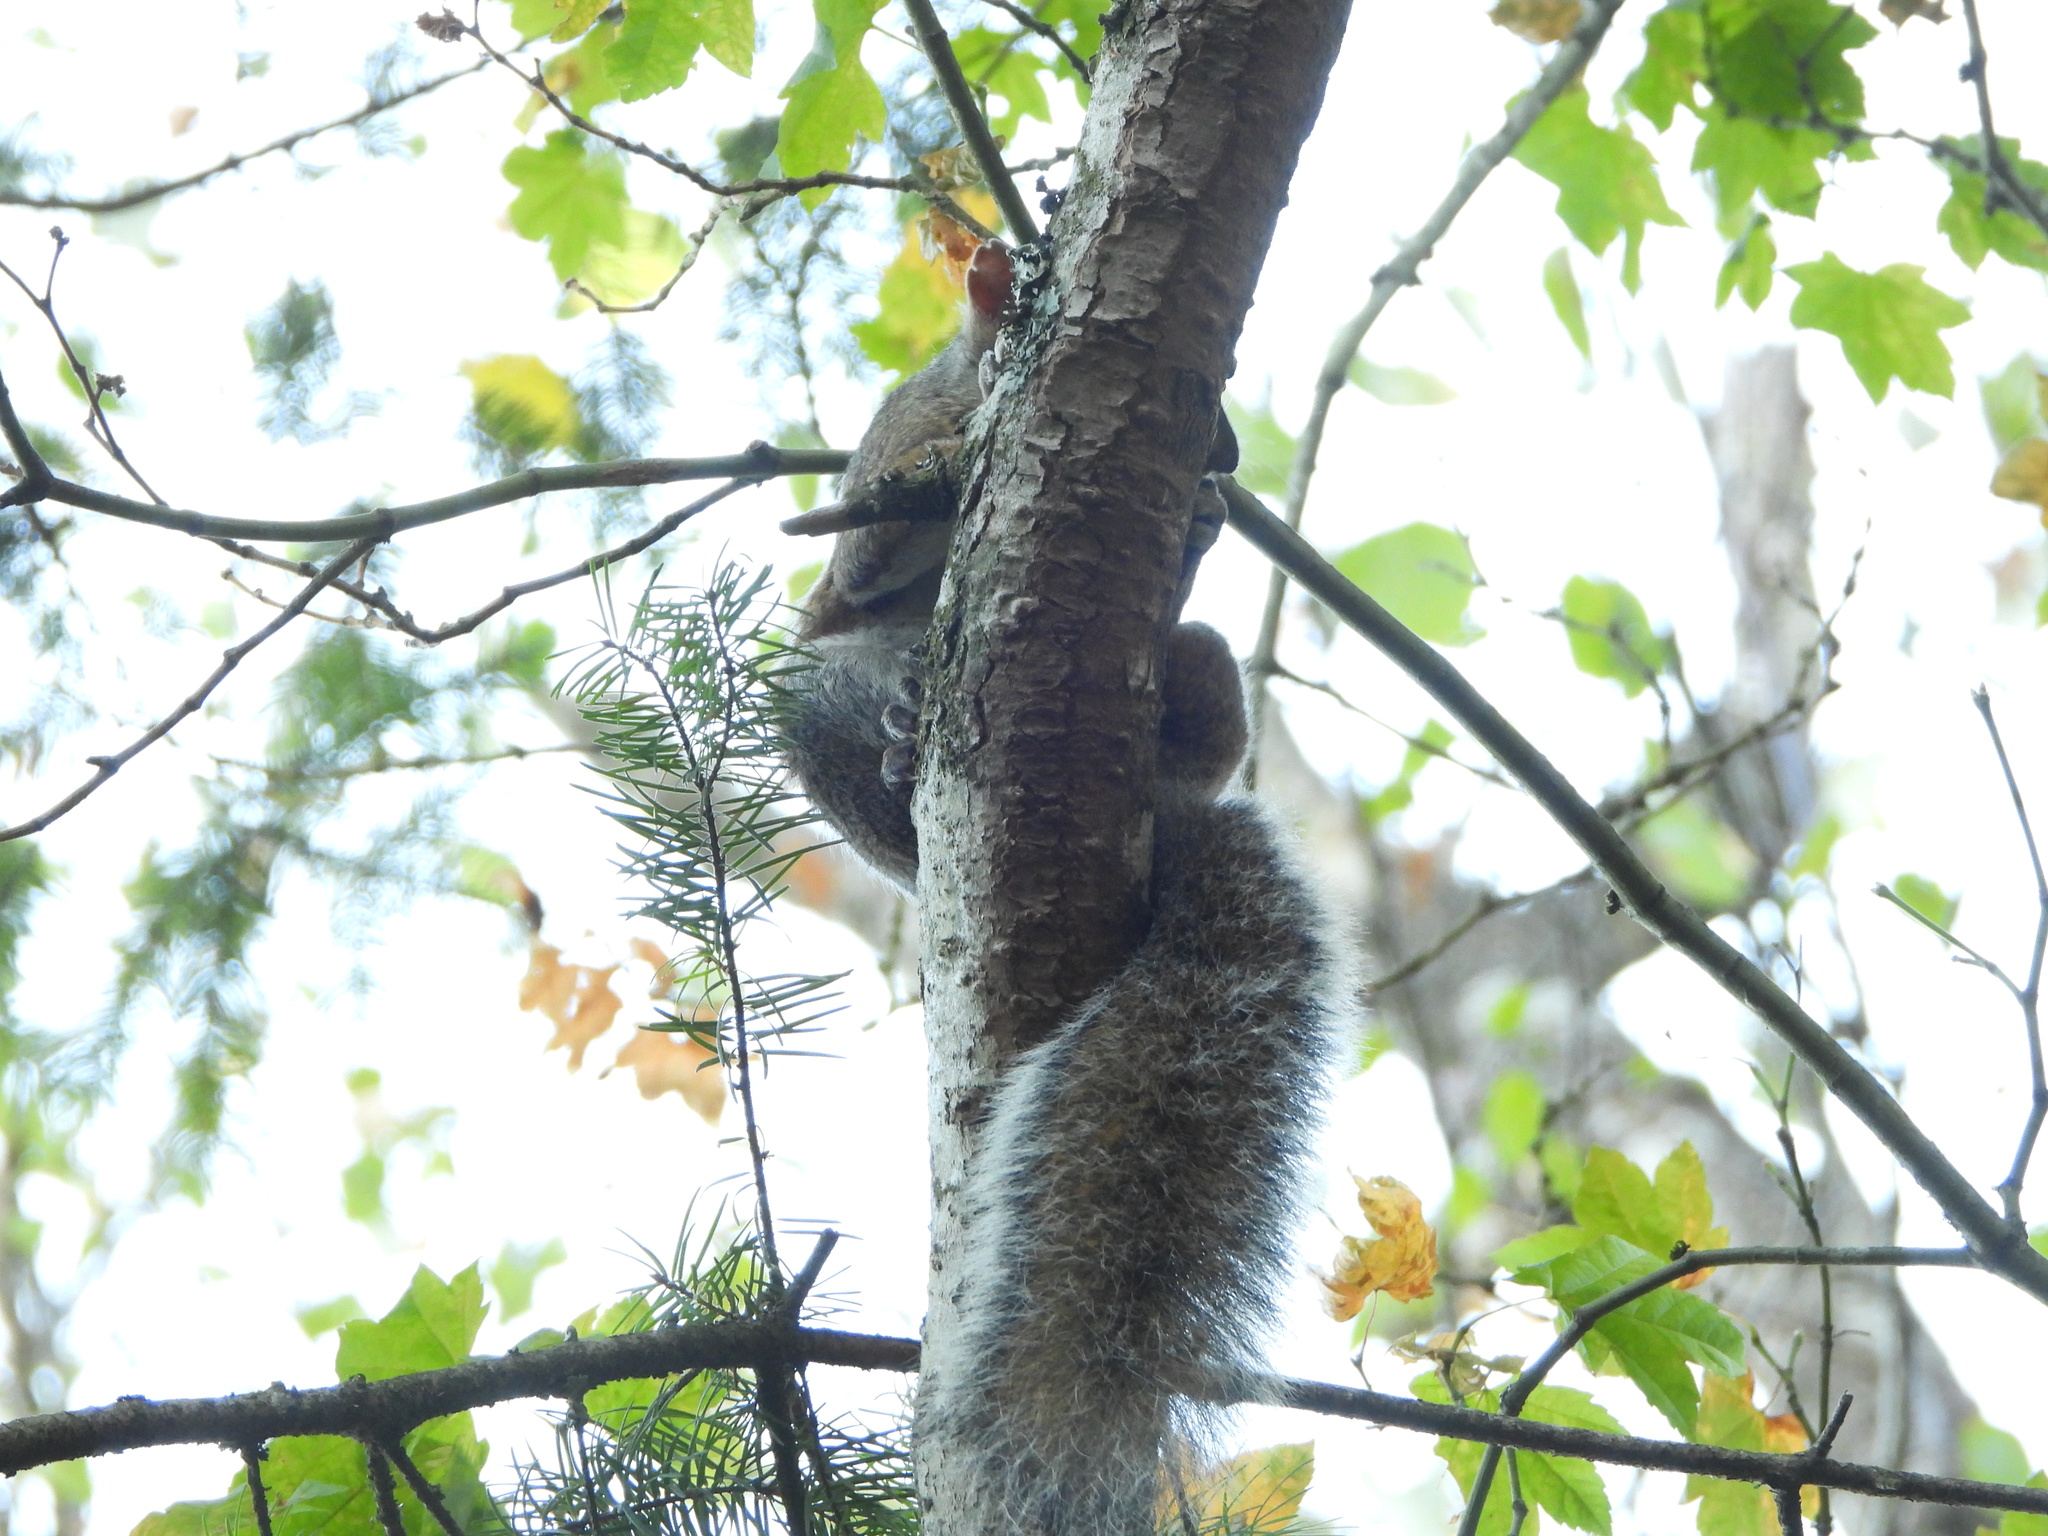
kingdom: Animalia
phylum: Chordata
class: Mammalia
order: Rodentia
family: Sciuridae
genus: Sciurus
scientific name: Sciurus carolinensis
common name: Eastern gray squirrel
